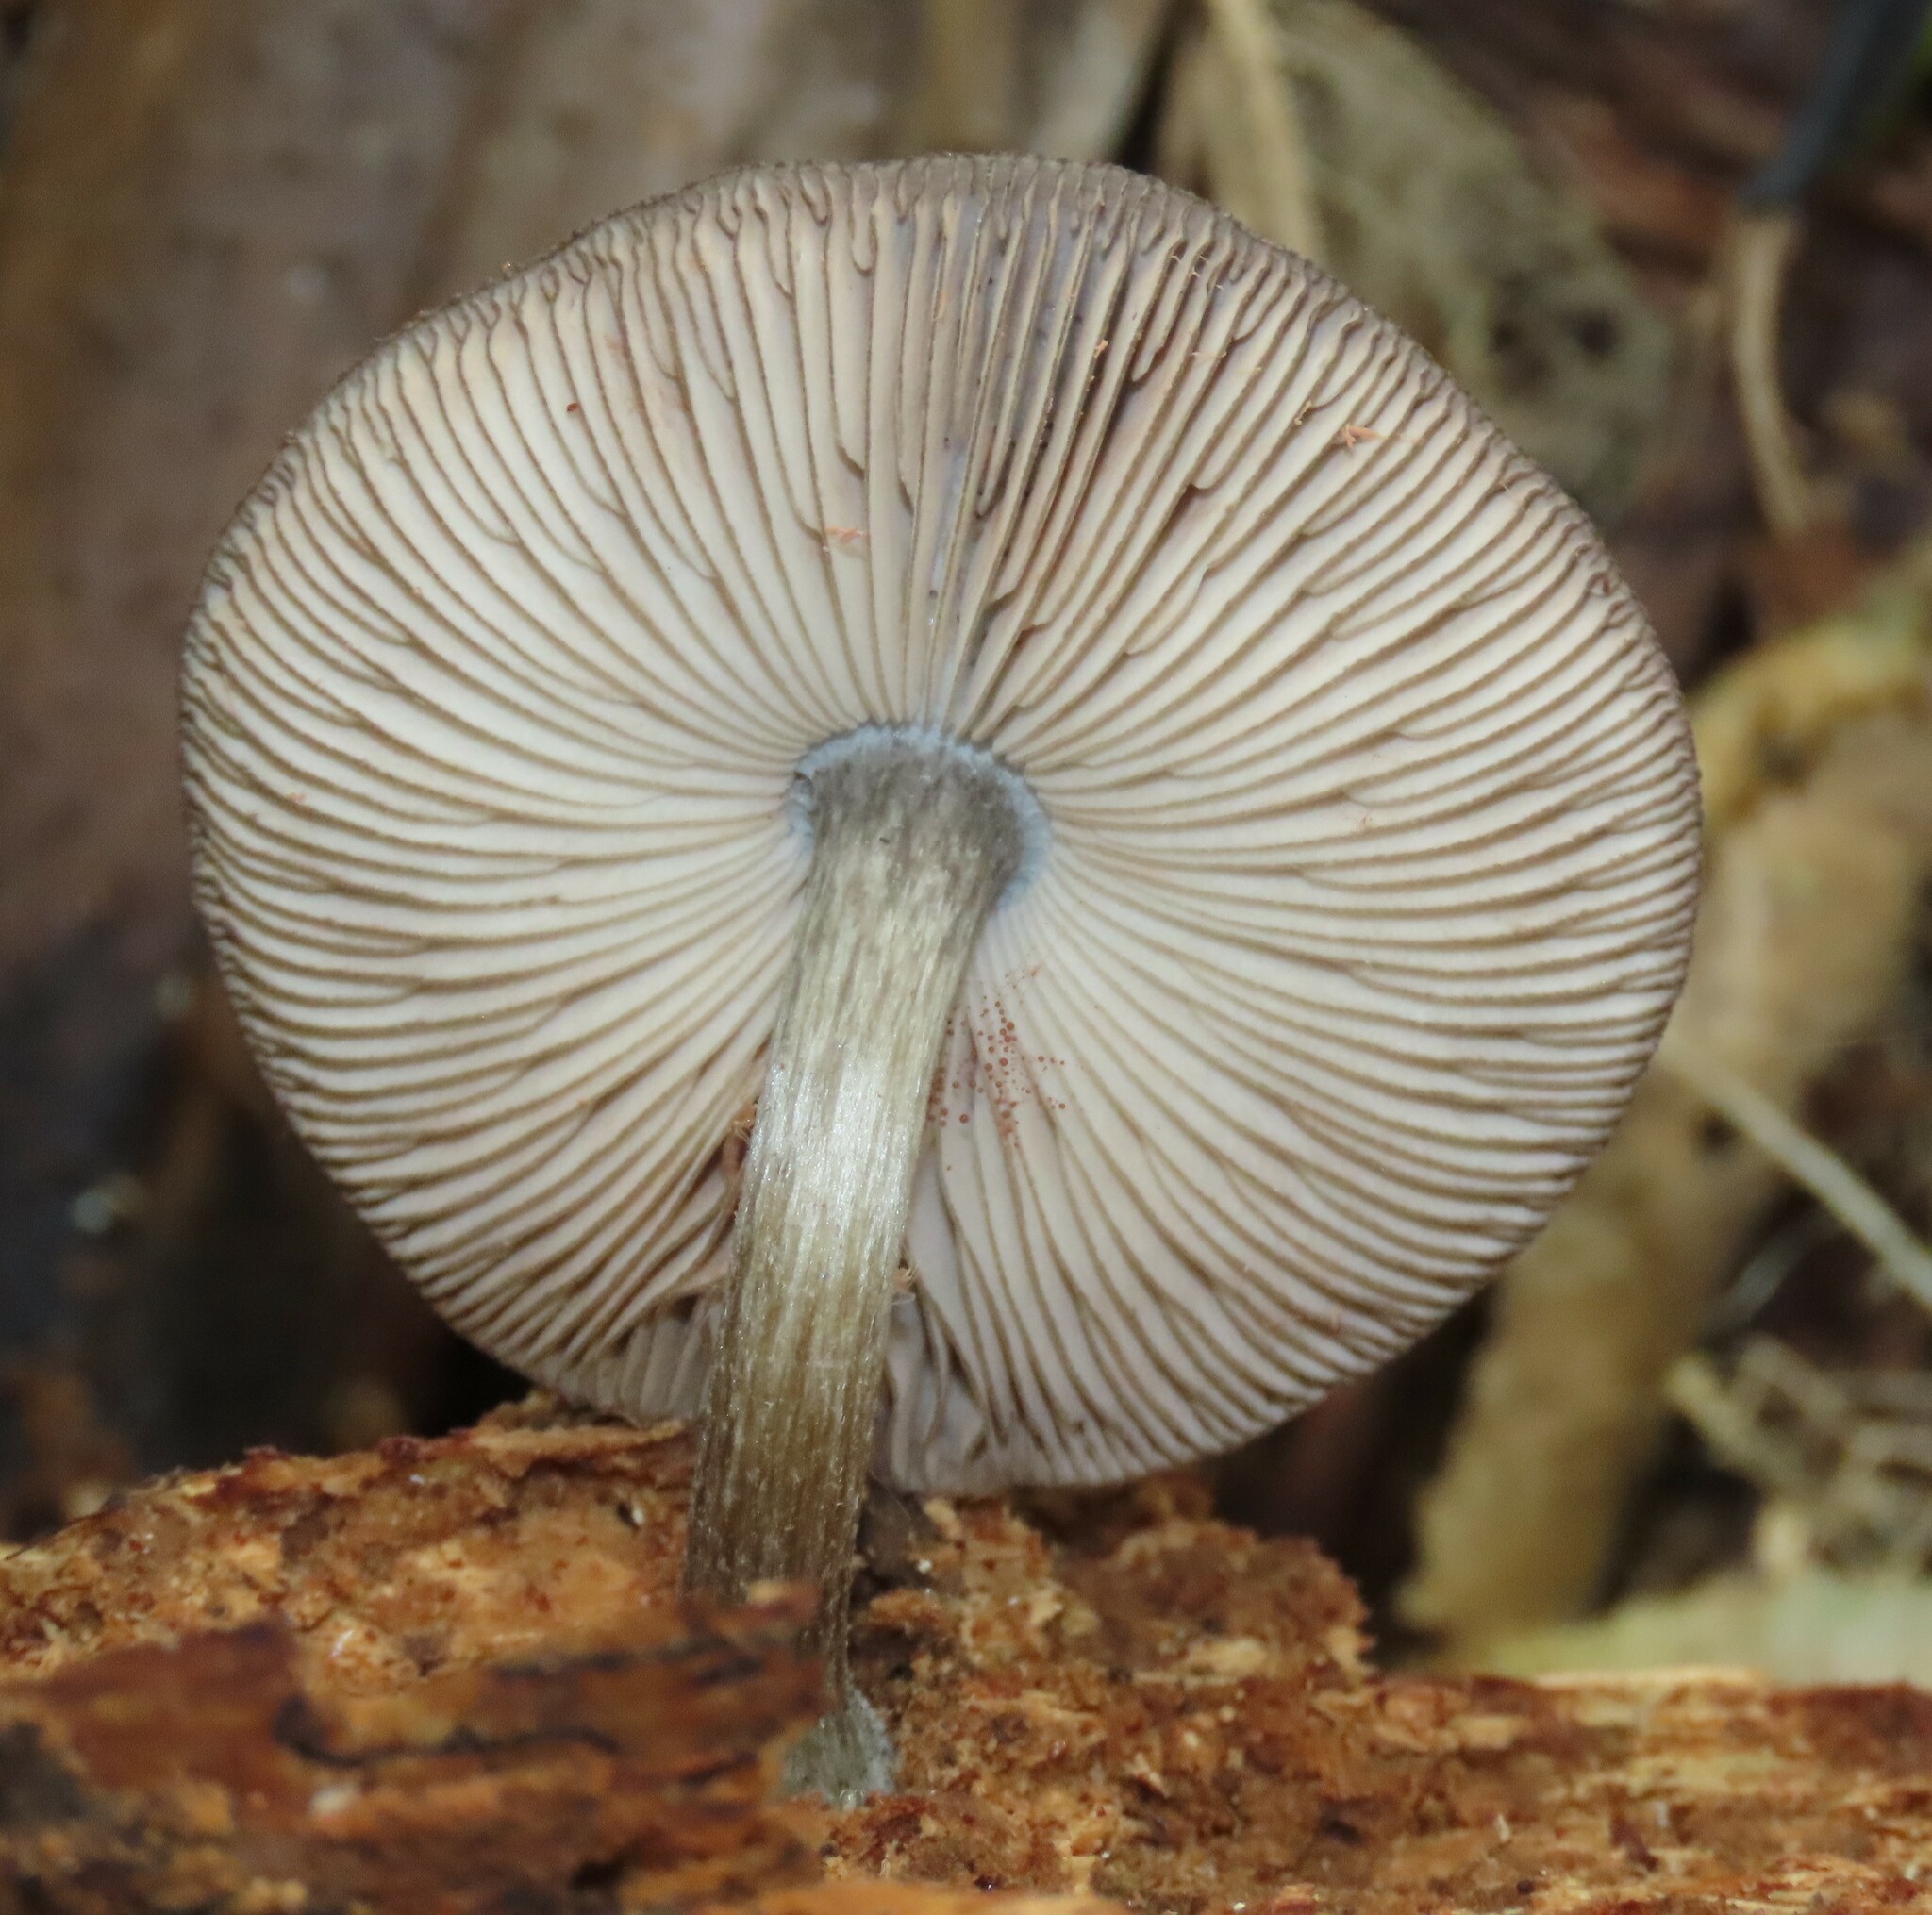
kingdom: Fungi
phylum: Basidiomycota
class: Agaricomycetes
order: Agaricales
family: Pluteaceae
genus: Pluteus
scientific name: Pluteus velutinornatus
